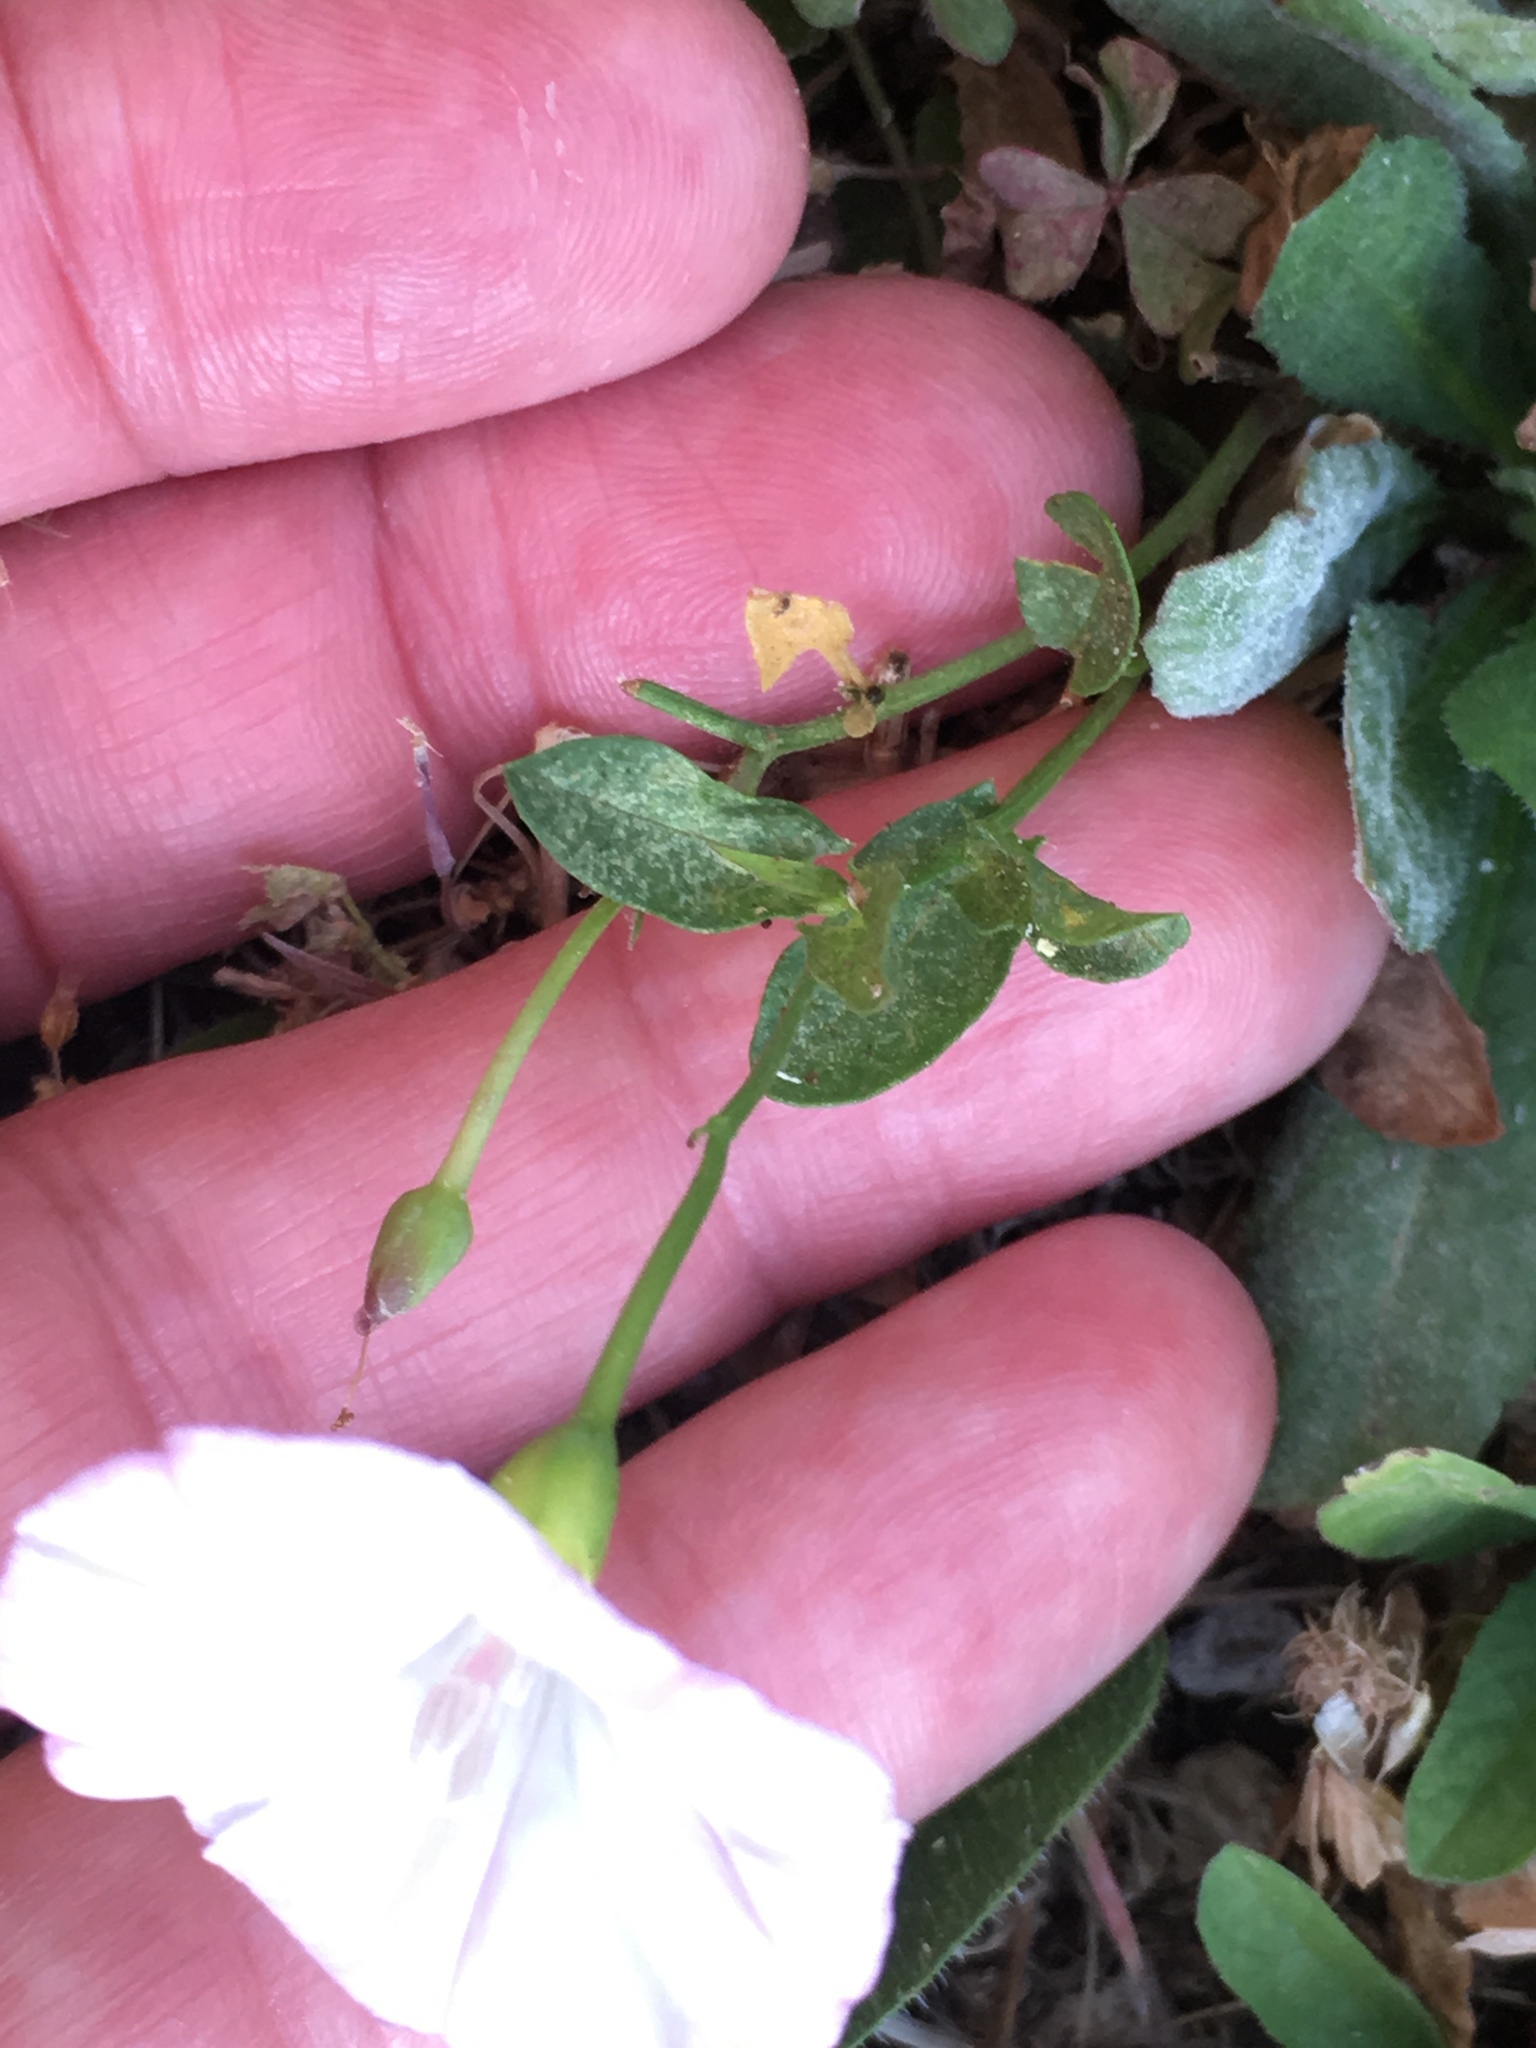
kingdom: Plantae
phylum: Tracheophyta
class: Magnoliopsida
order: Solanales
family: Convolvulaceae
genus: Convolvulus
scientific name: Convolvulus arvensis
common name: Field bindweed
